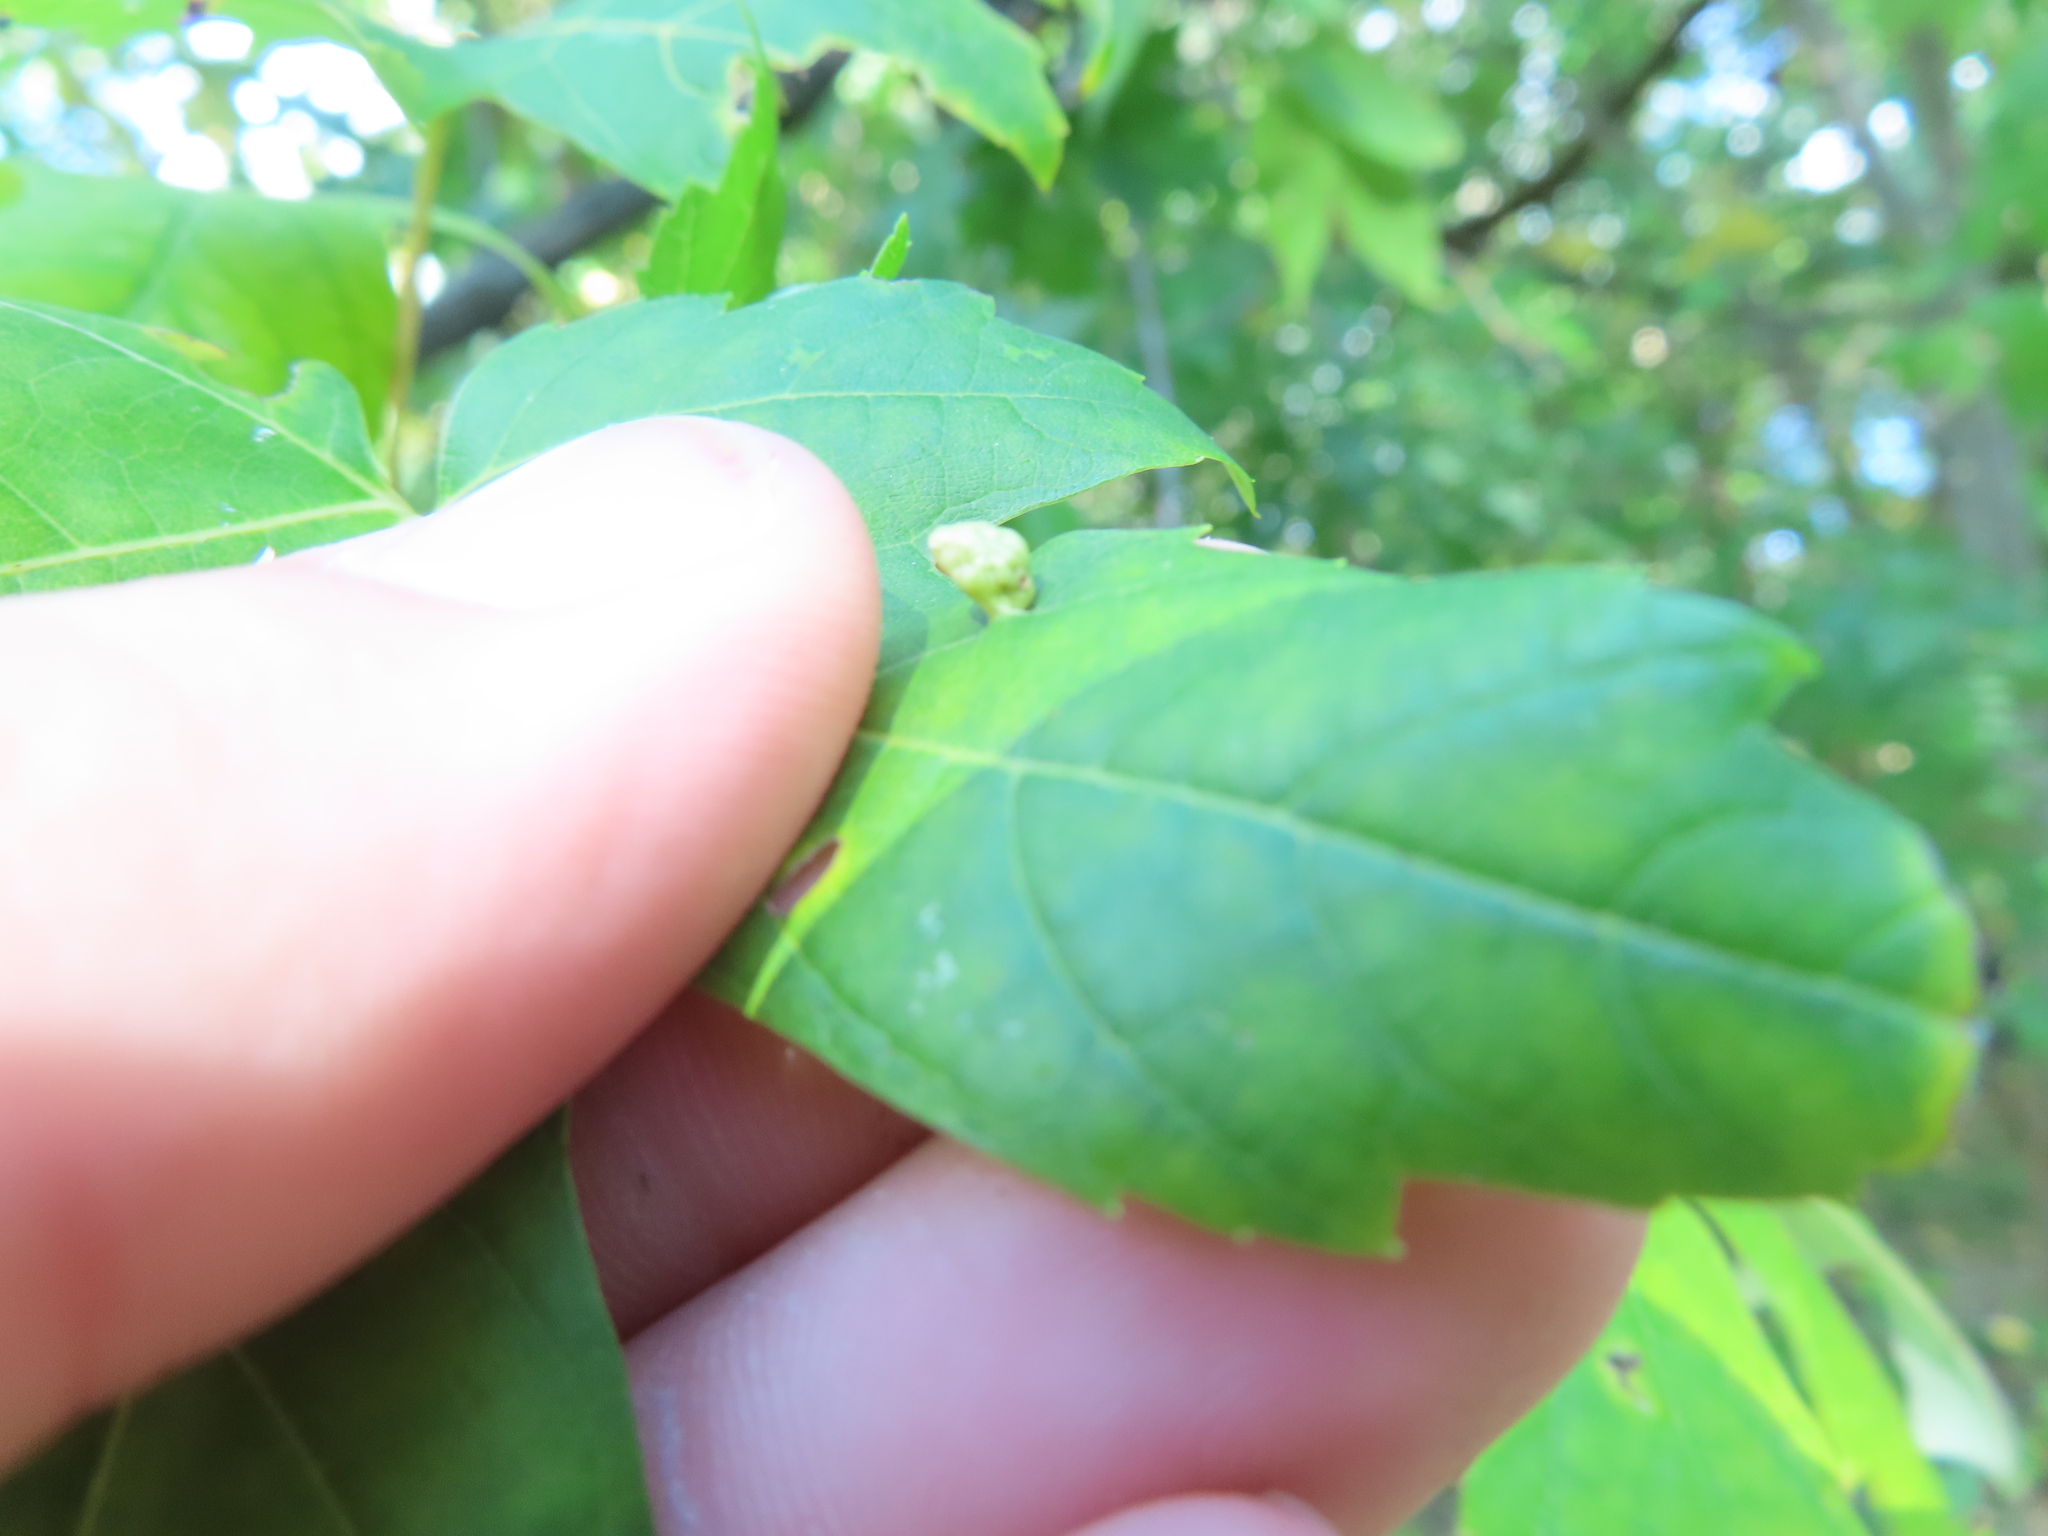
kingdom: Animalia
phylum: Arthropoda
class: Arachnida
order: Trombidiformes
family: Eriophyidae
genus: Vasates
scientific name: Vasates quadripedes
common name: Maple bladder gall mite
